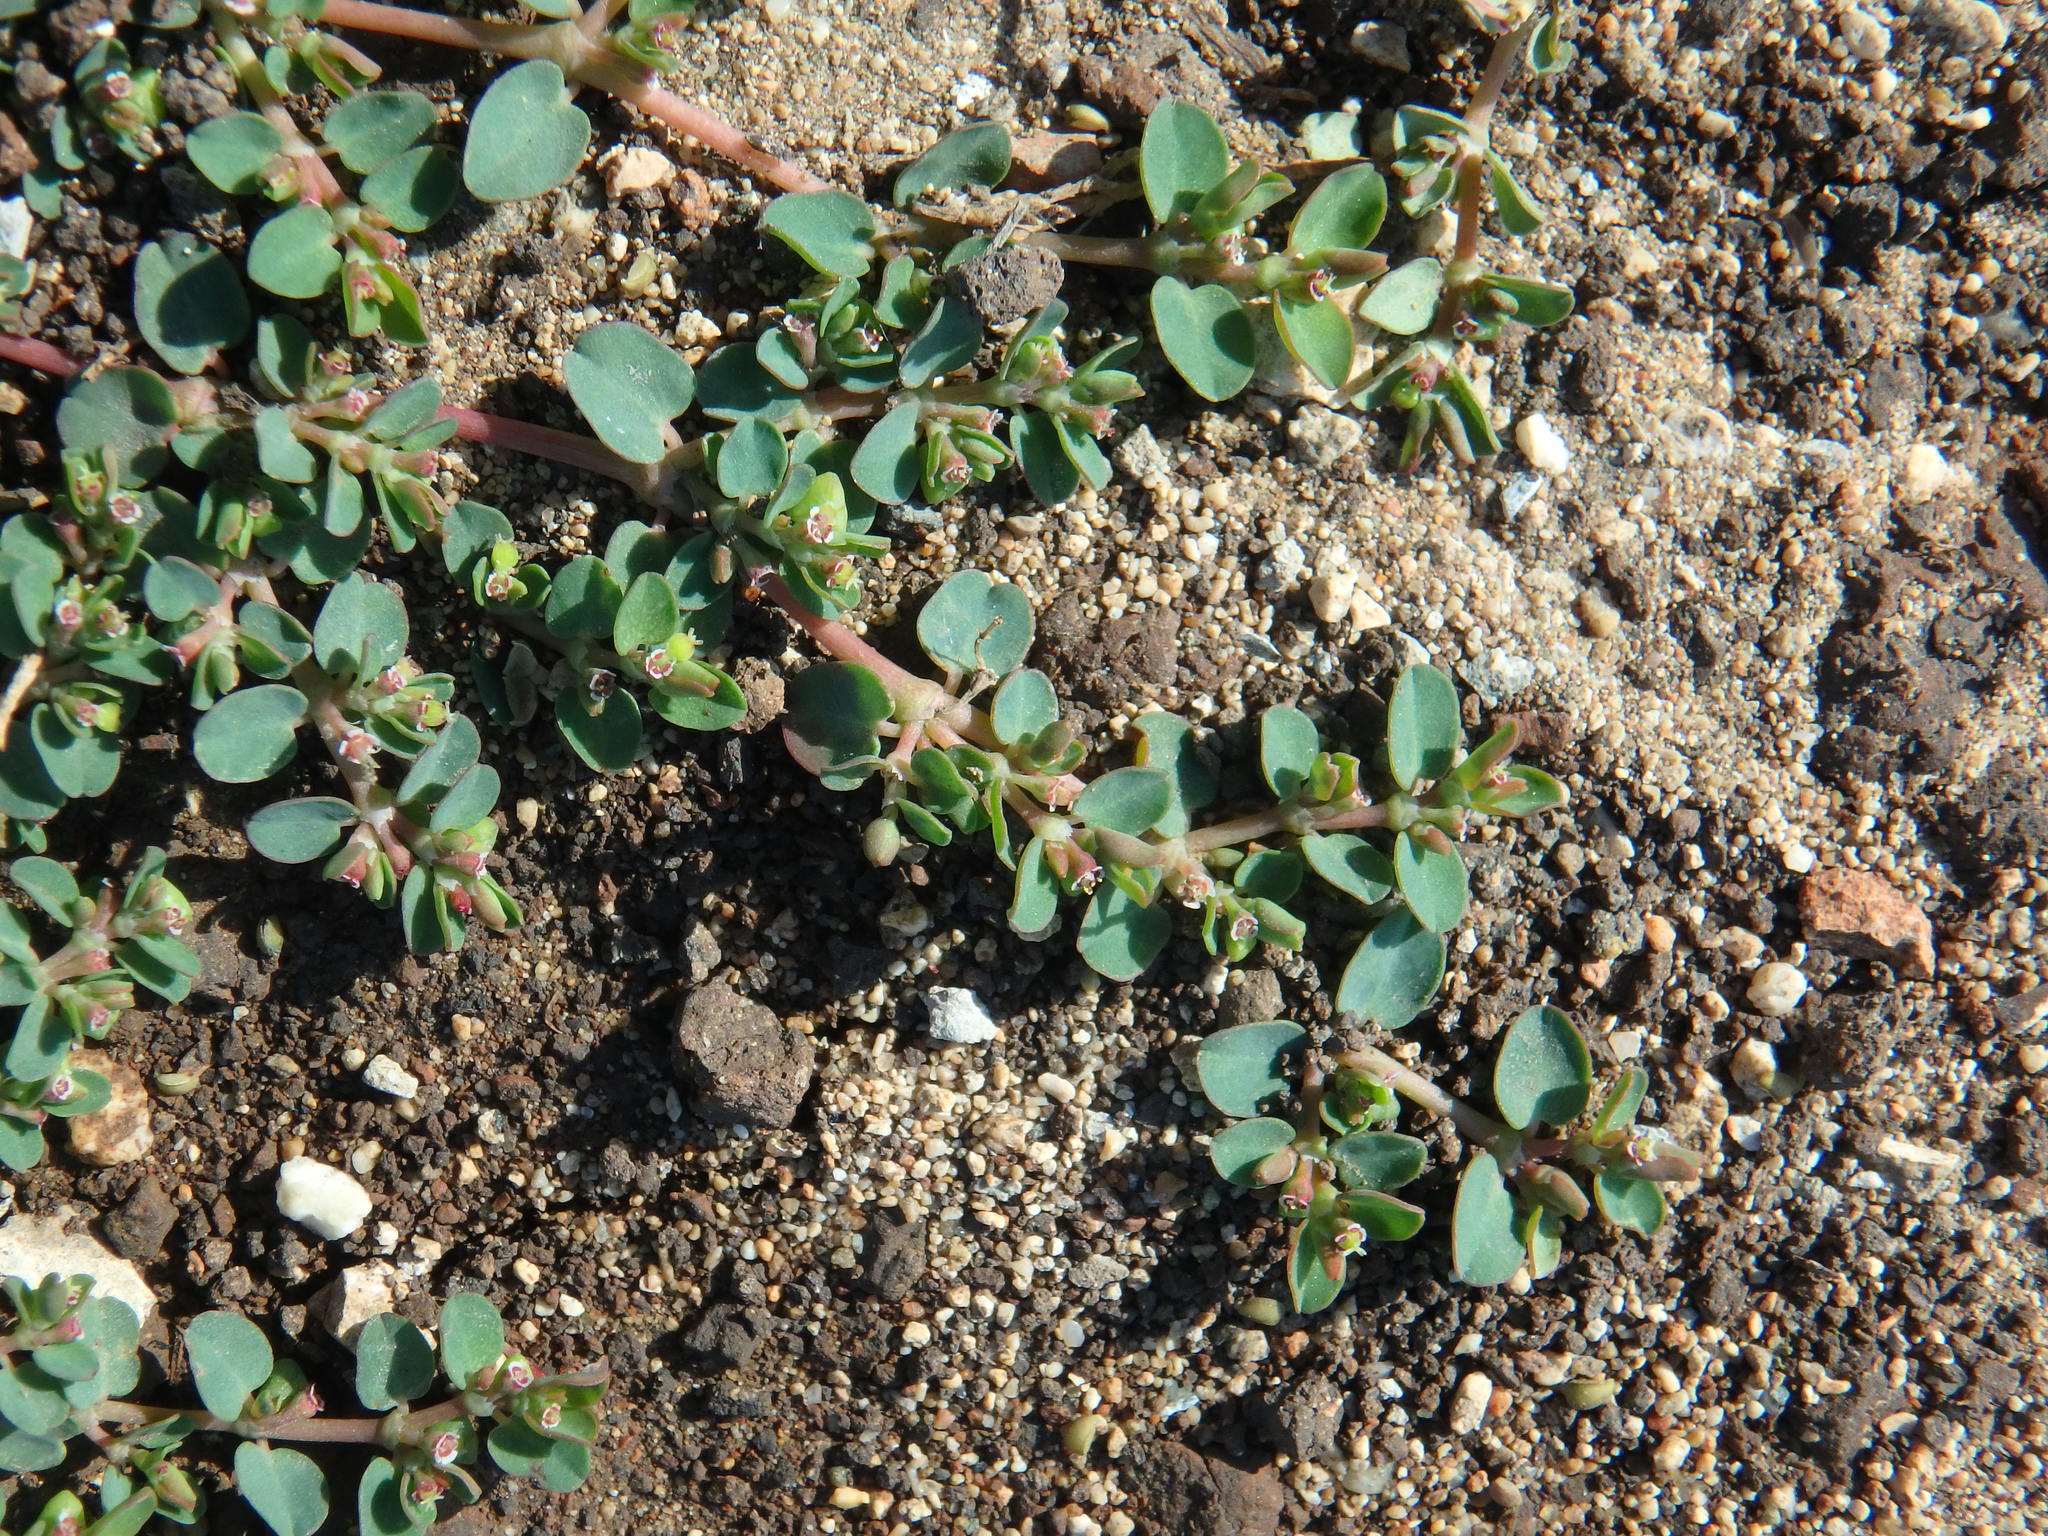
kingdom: Plantae
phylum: Tracheophyta
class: Magnoliopsida
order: Malpighiales
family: Euphorbiaceae
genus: Euphorbia
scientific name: Euphorbia serpens
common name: Matted sandmat
